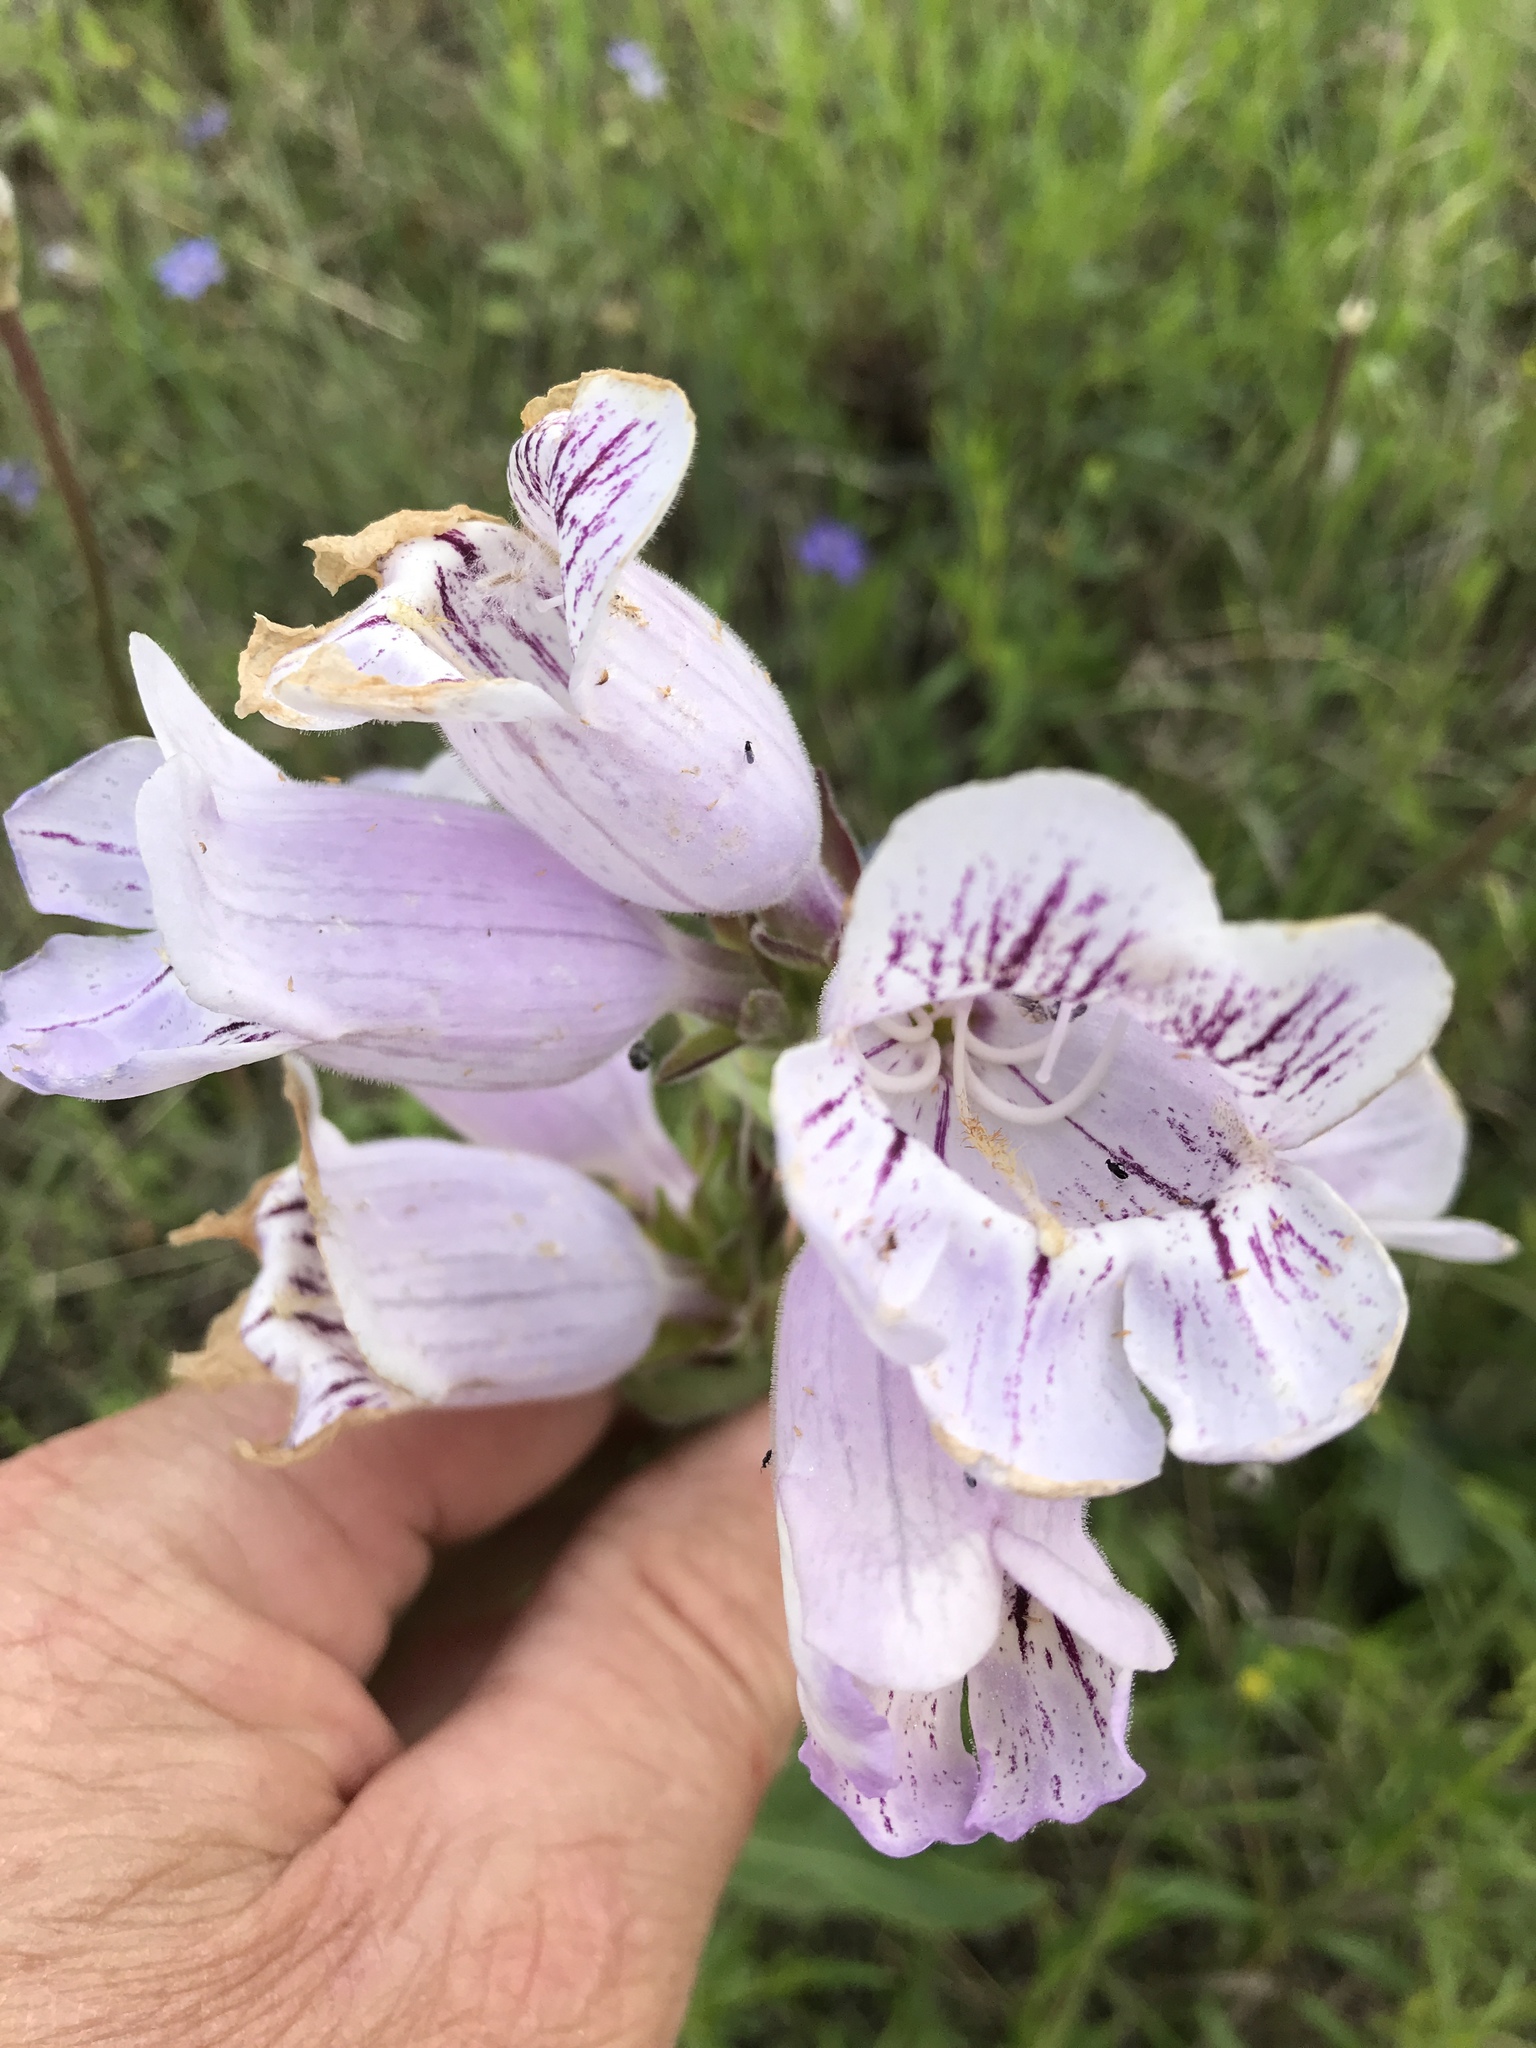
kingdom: Plantae
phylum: Tracheophyta
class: Magnoliopsida
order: Lamiales
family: Plantaginaceae
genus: Penstemon
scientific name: Penstemon cobaea
